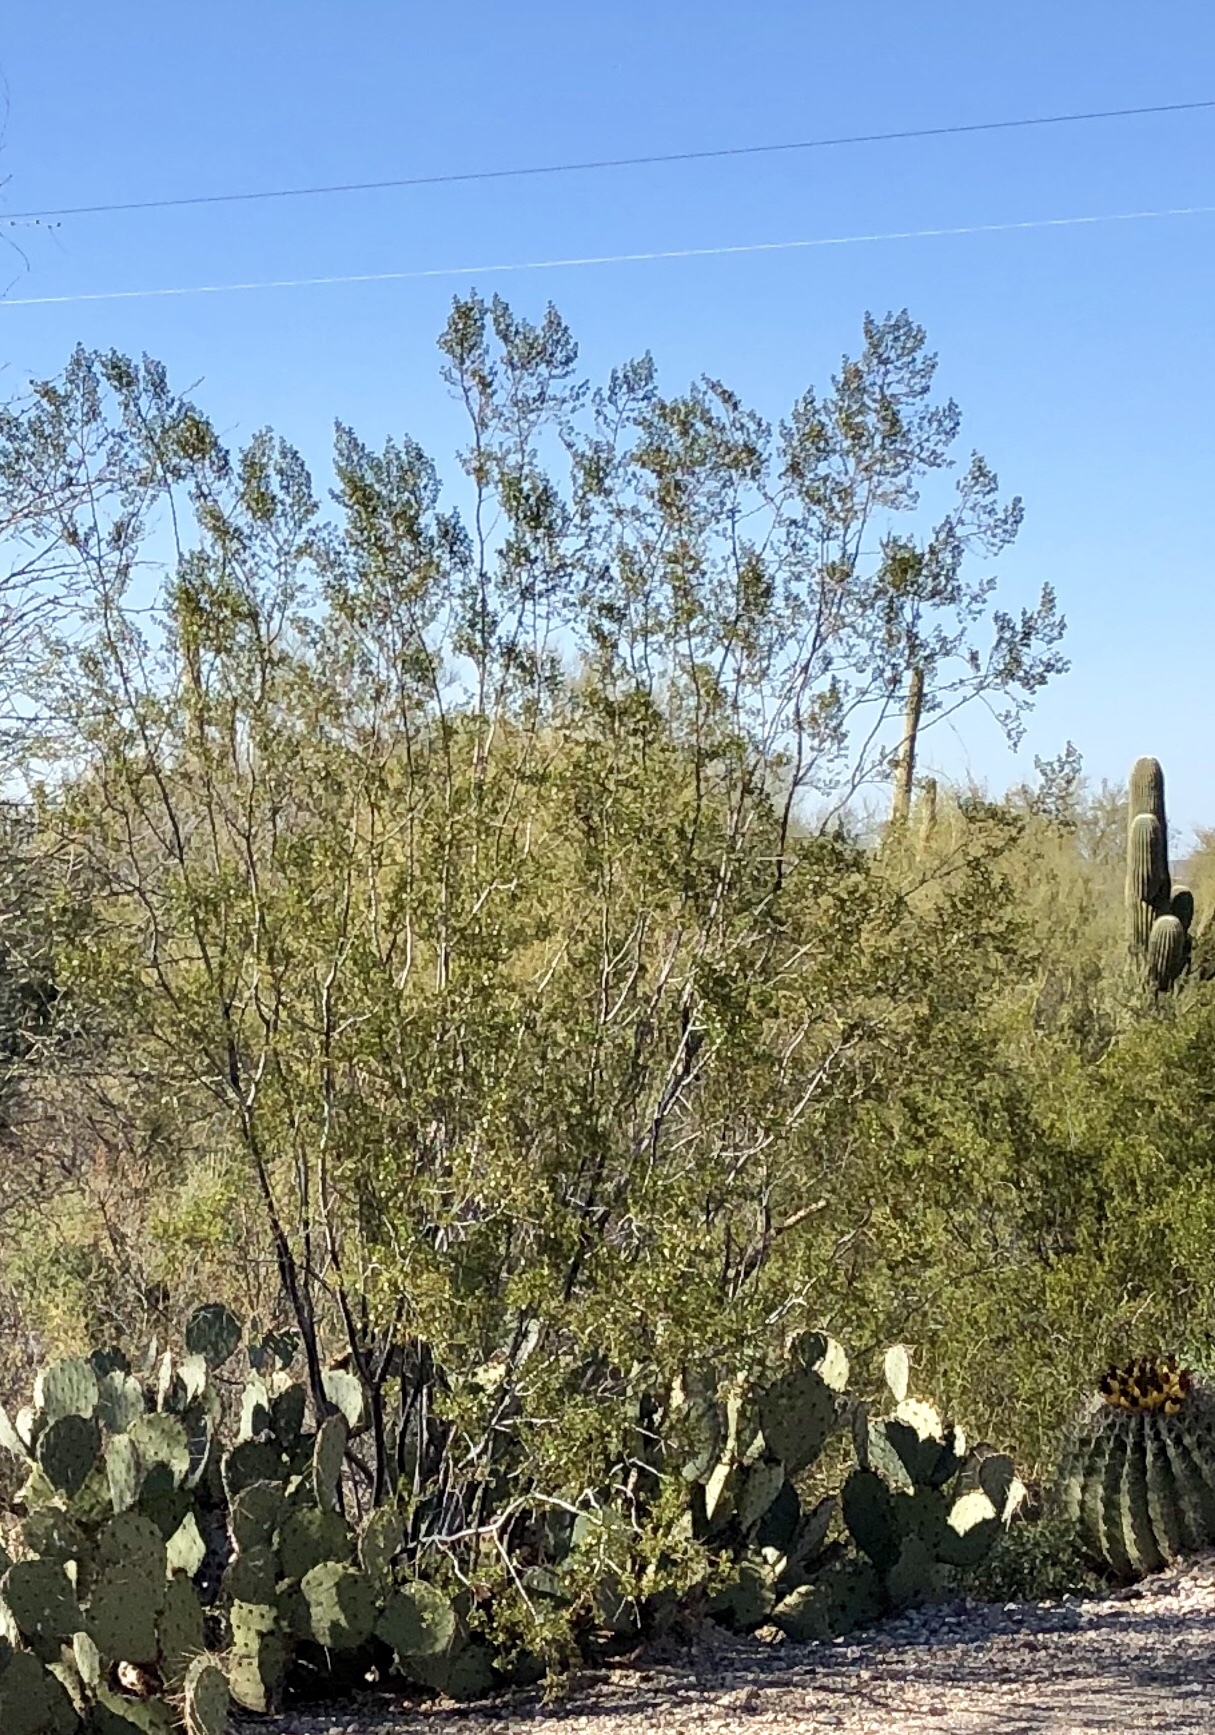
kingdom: Plantae
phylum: Tracheophyta
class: Magnoliopsida
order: Zygophyllales
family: Zygophyllaceae
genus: Larrea
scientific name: Larrea tridentata
